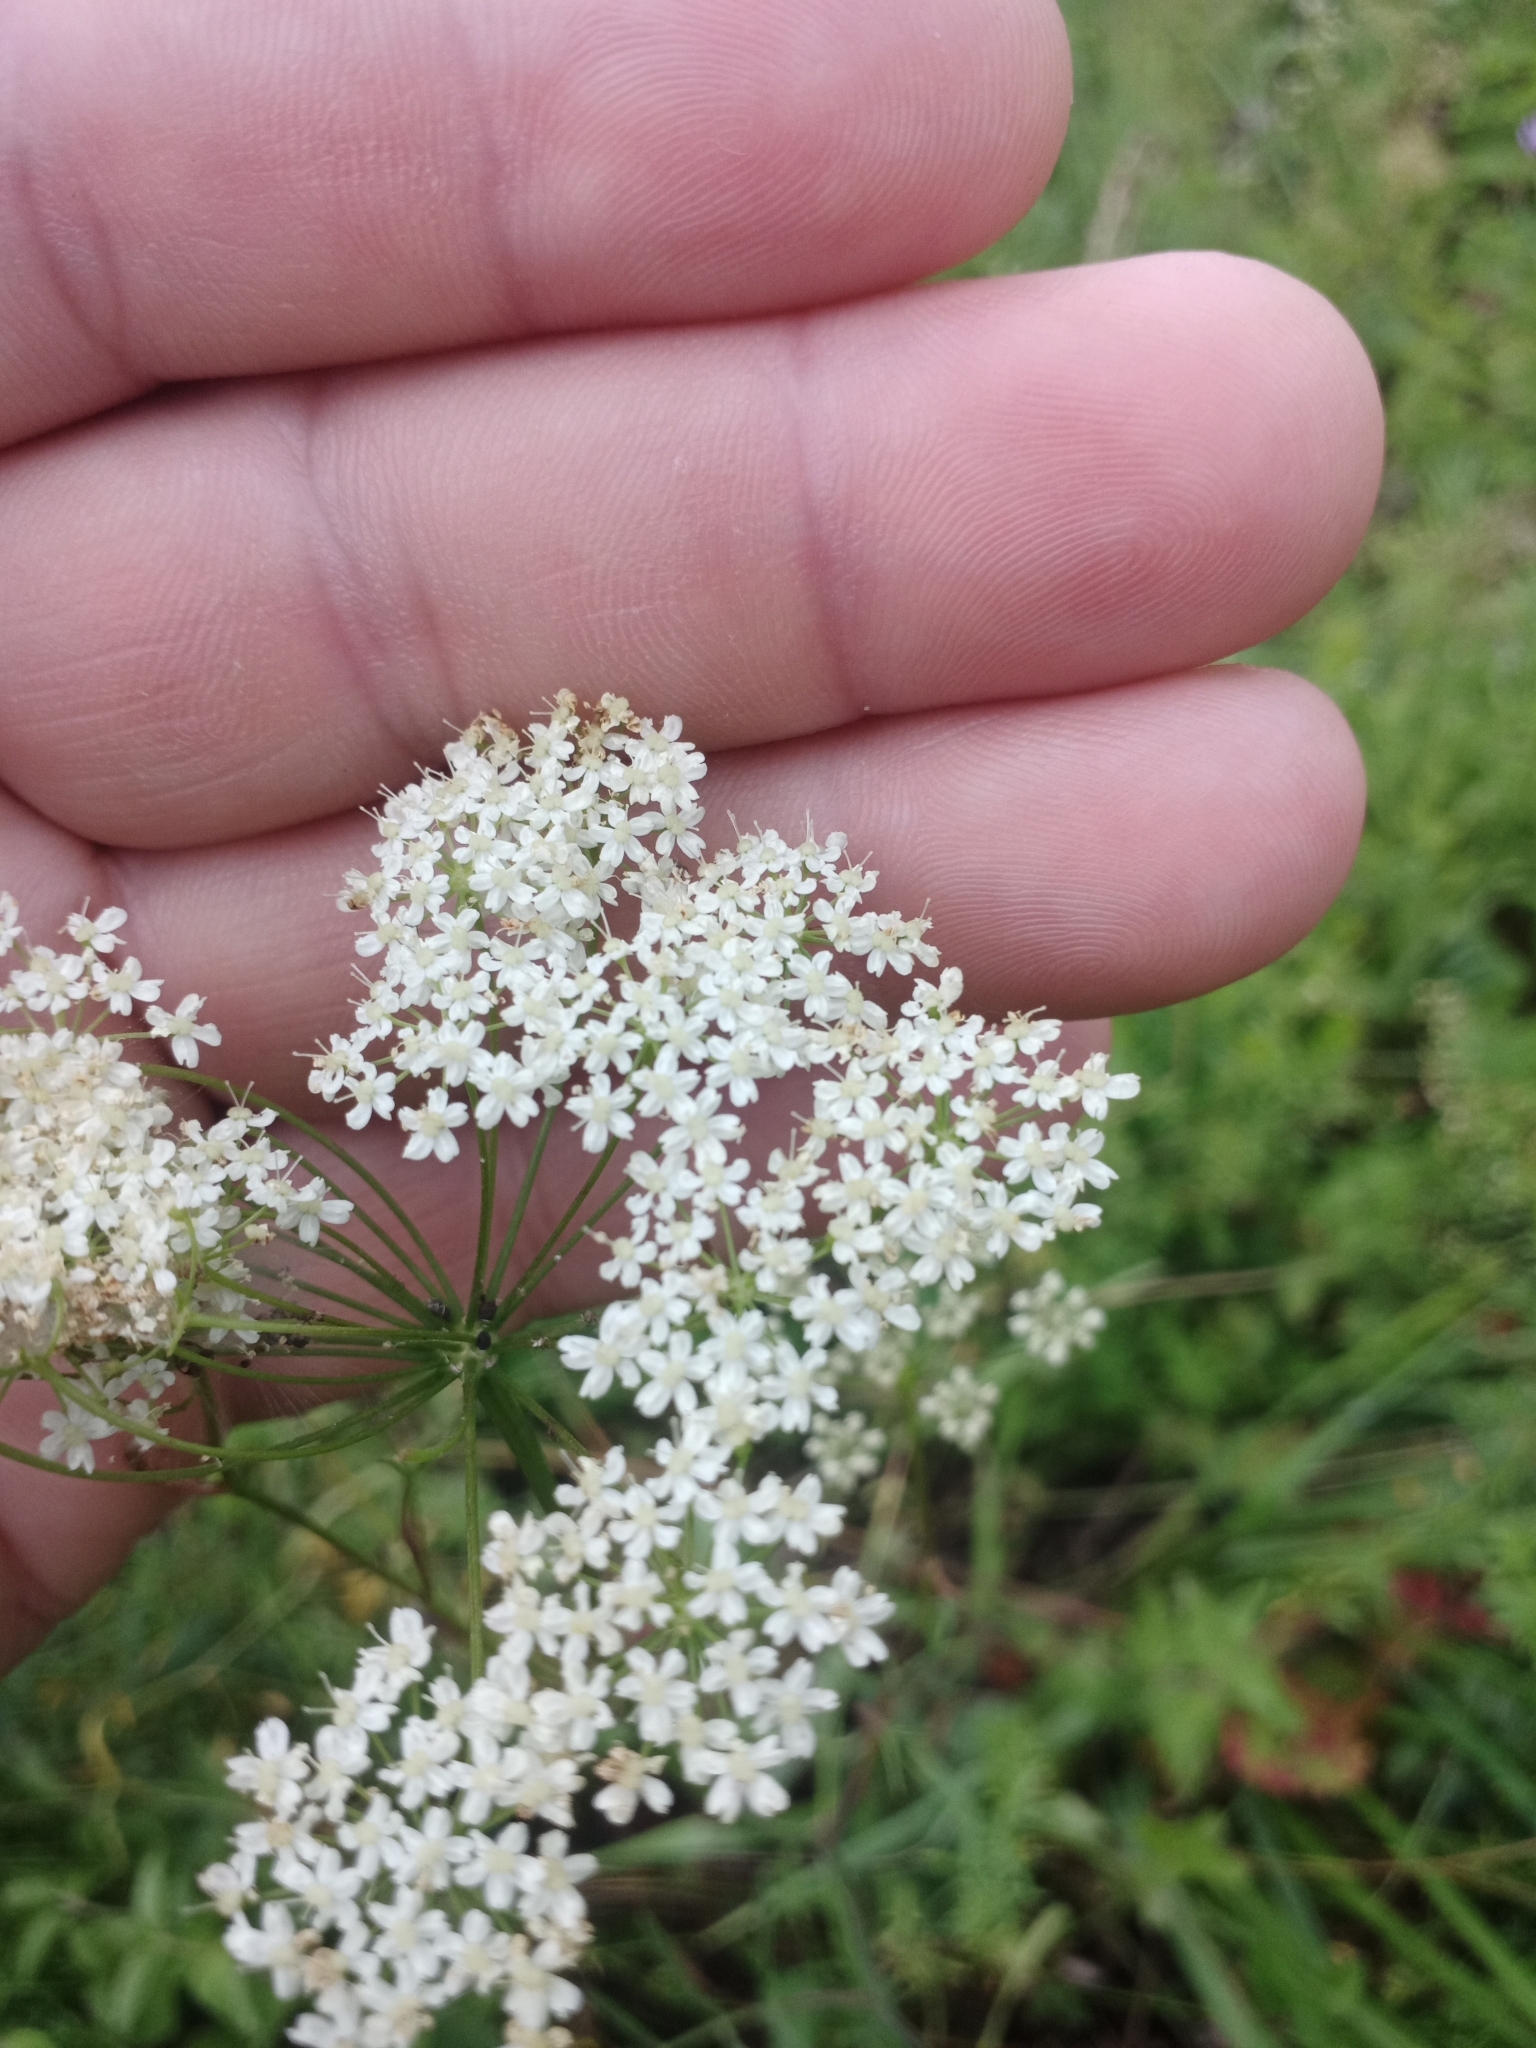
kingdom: Plantae
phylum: Tracheophyta
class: Magnoliopsida
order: Apiales
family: Apiaceae
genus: Pimpinella
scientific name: Pimpinella saxifraga
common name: Burnet-saxifrage
